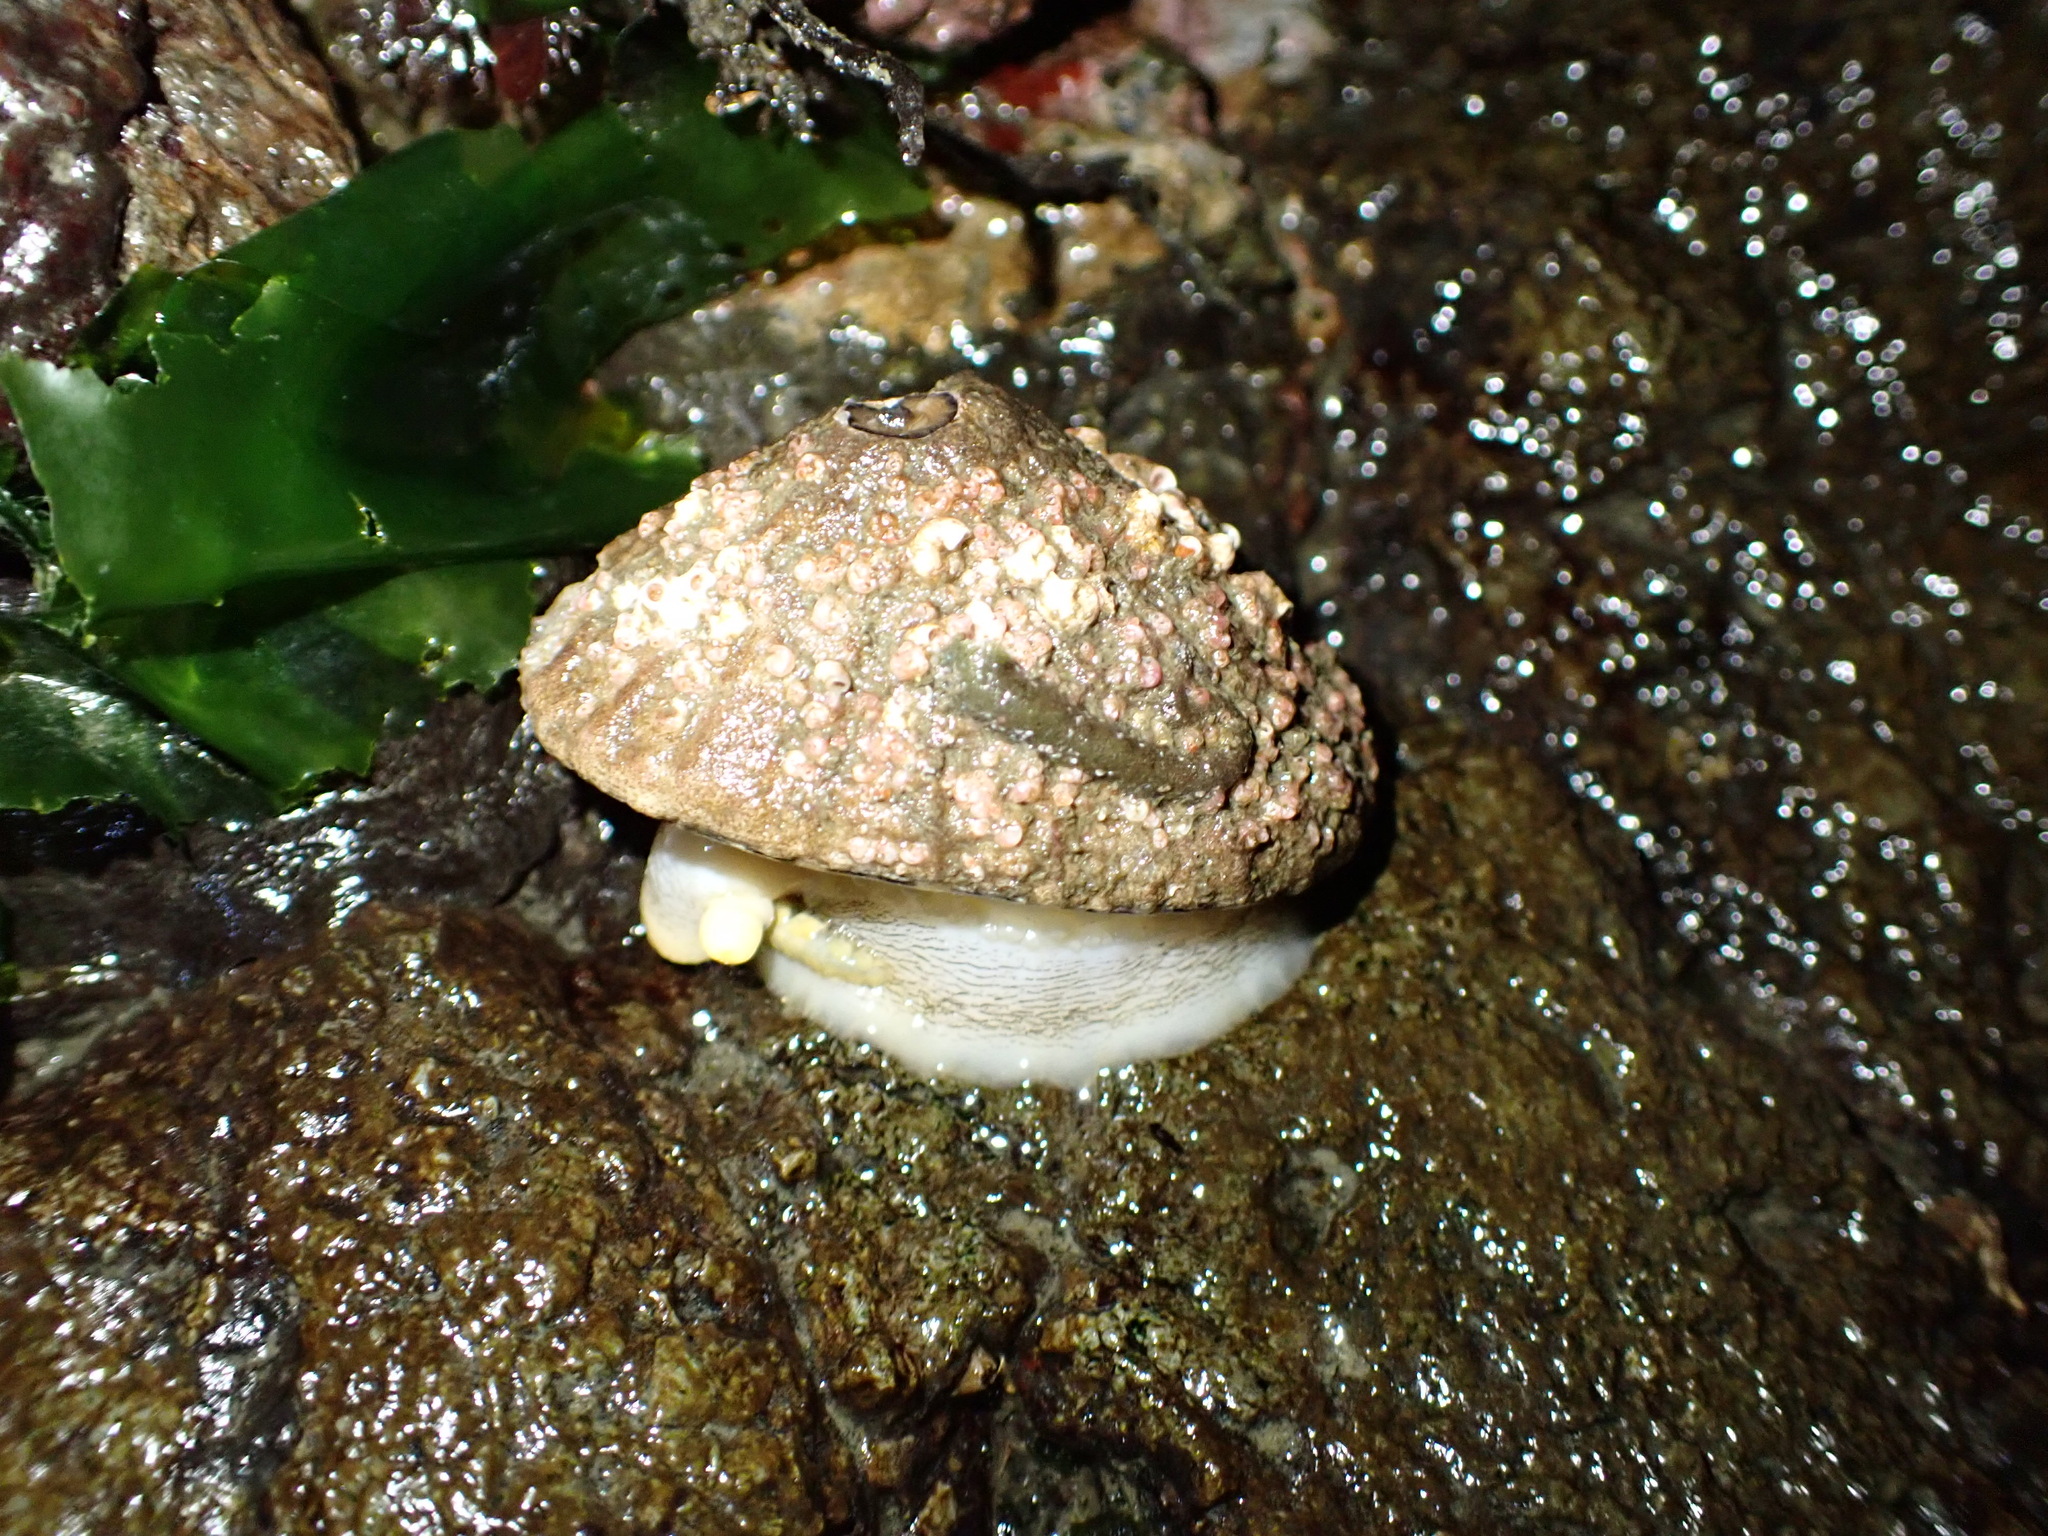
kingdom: Animalia
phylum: Mollusca
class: Gastropoda
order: Lepetellida
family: Fissurellidae
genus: Diodora
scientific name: Diodora aspera
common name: Rough keyhole limpet
